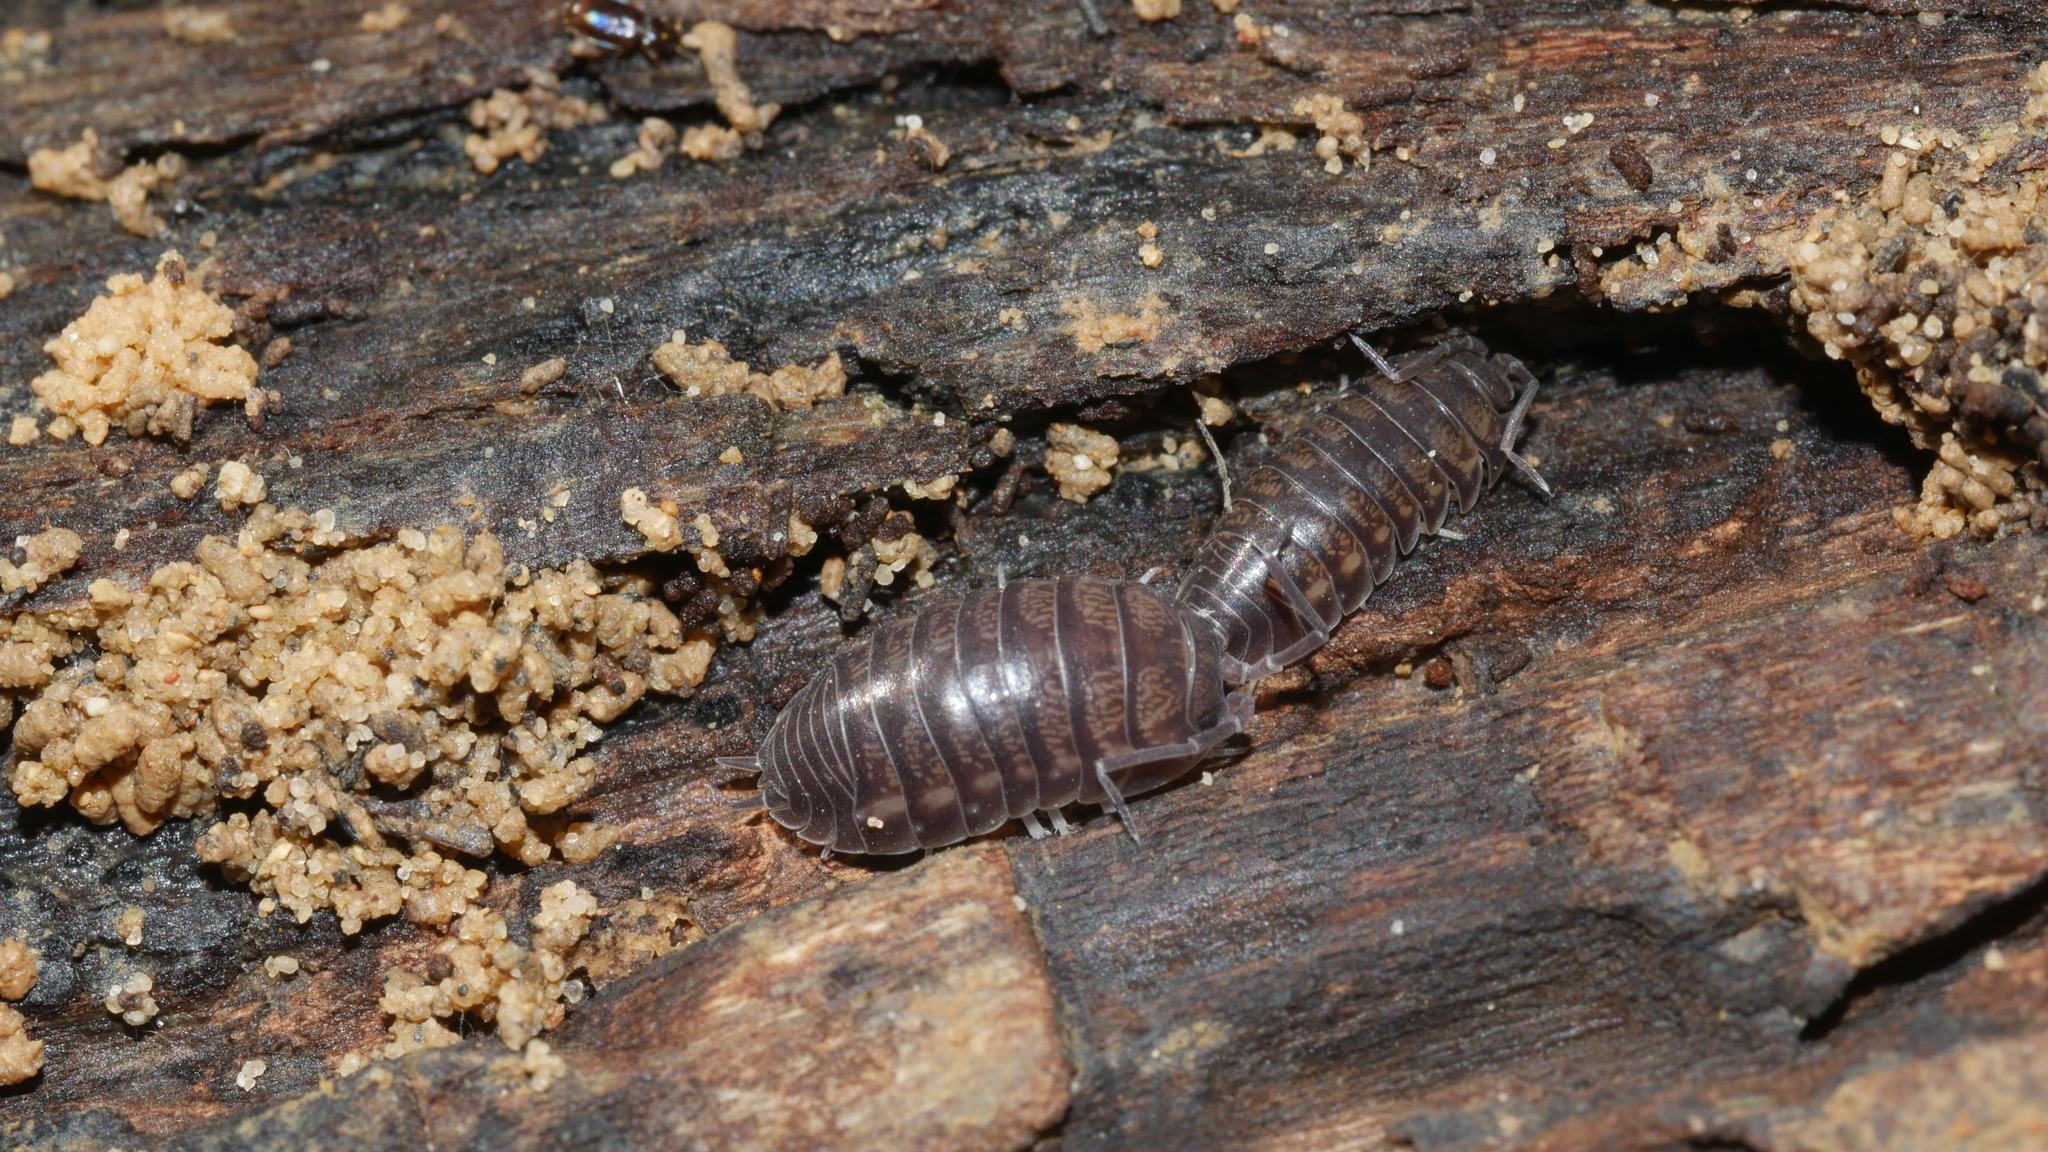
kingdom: Animalia
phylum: Arthropoda
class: Malacostraca
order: Isopoda
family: Cylisticidae
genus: Cylisticus
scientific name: Cylisticus convexus
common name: Curly woodlouse
